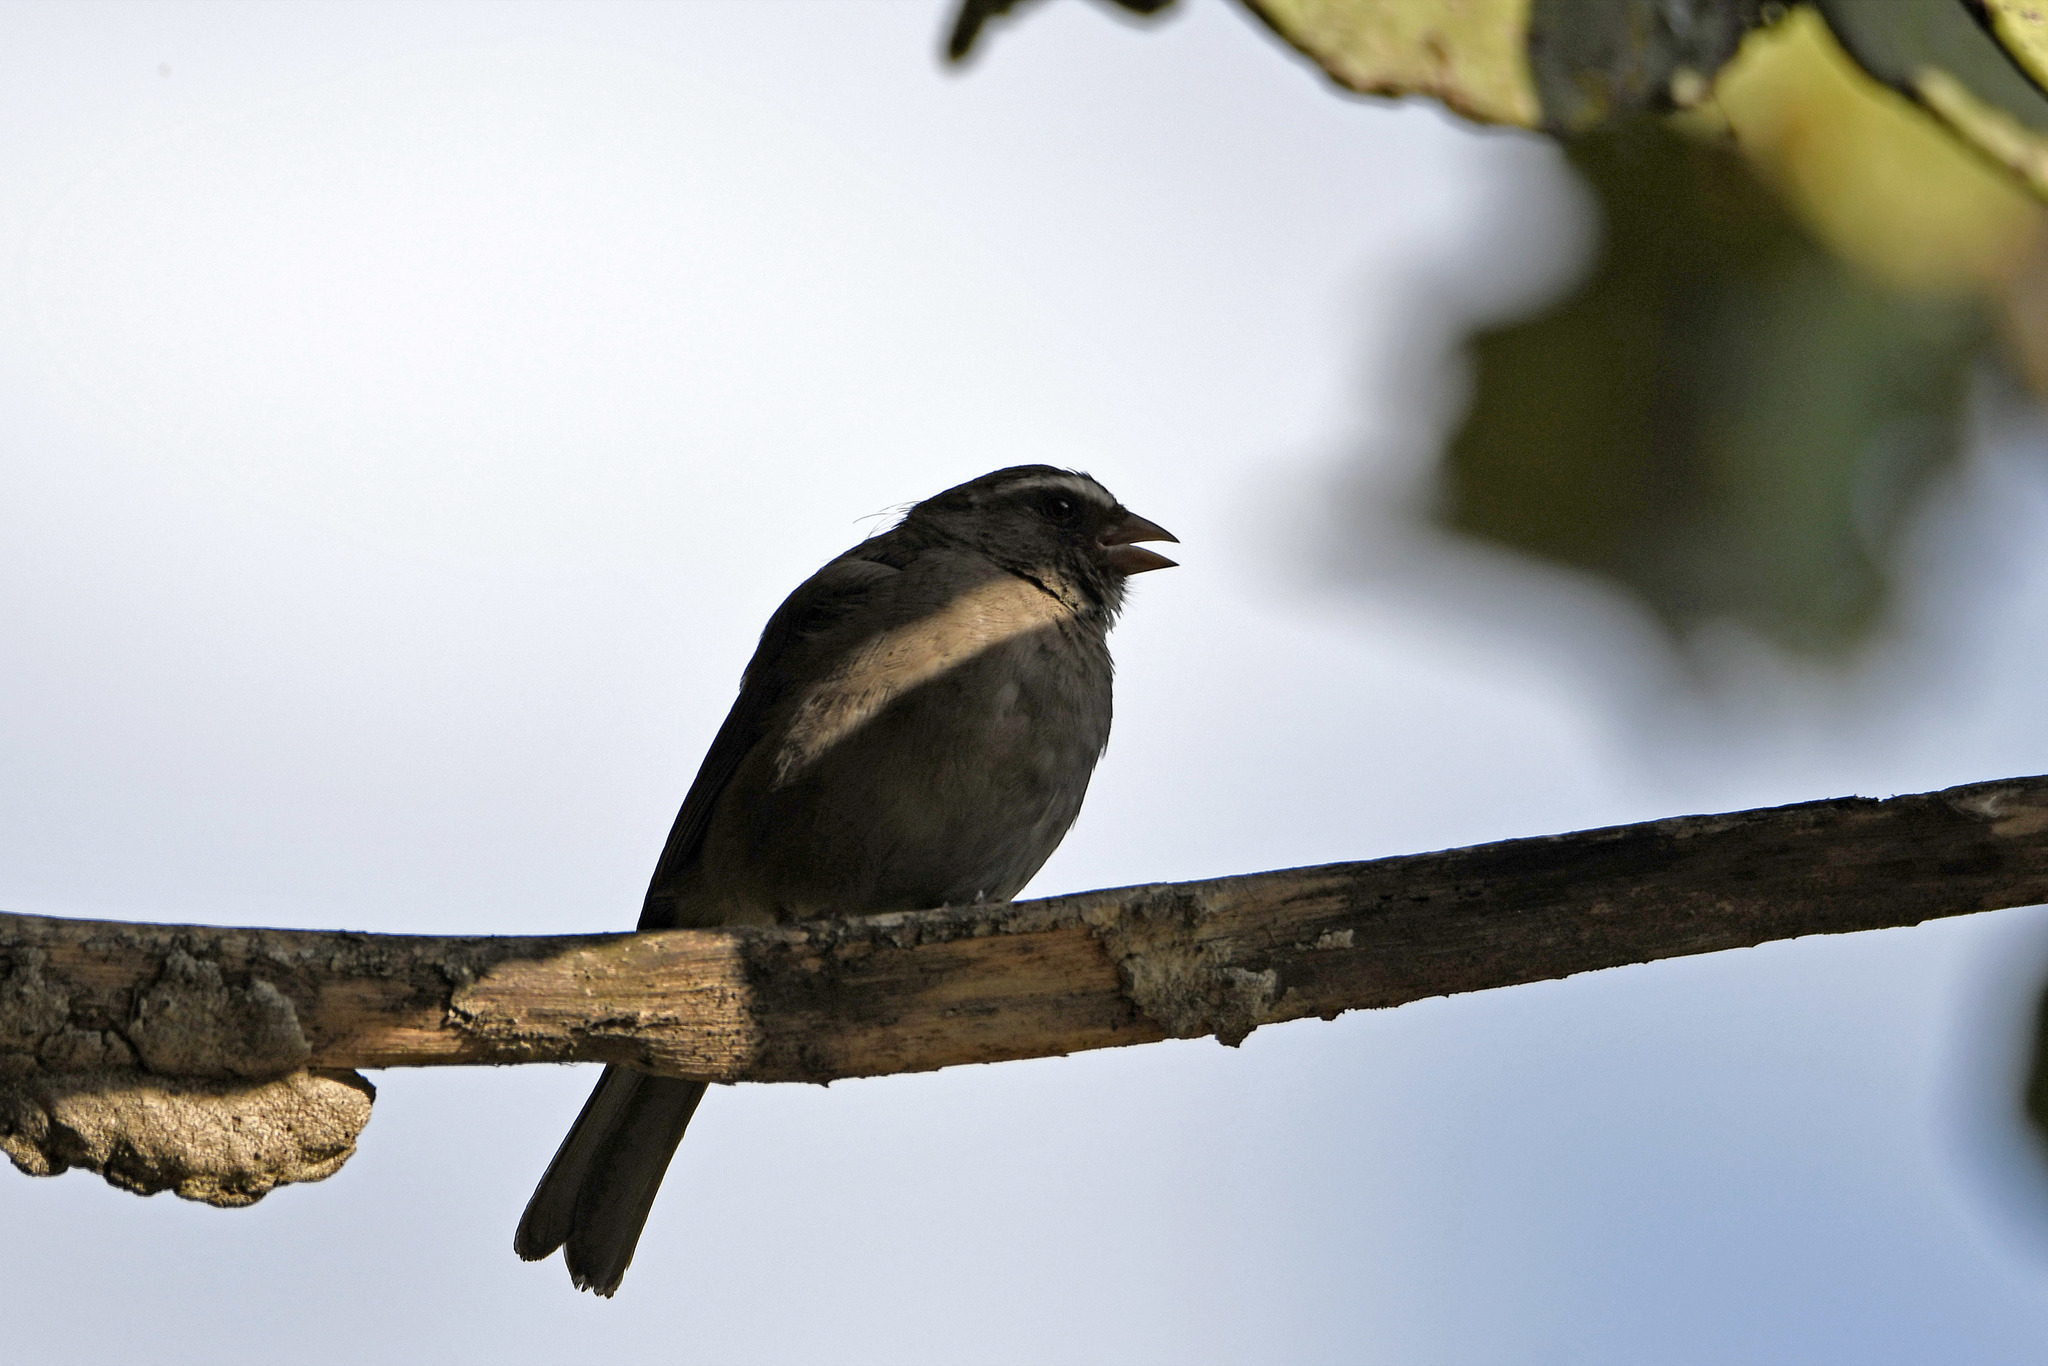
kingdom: Animalia
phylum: Chordata
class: Aves
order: Passeriformes
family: Fringillidae
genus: Crithagra
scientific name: Crithagra tristriata
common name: Brown-rumped seedeater
